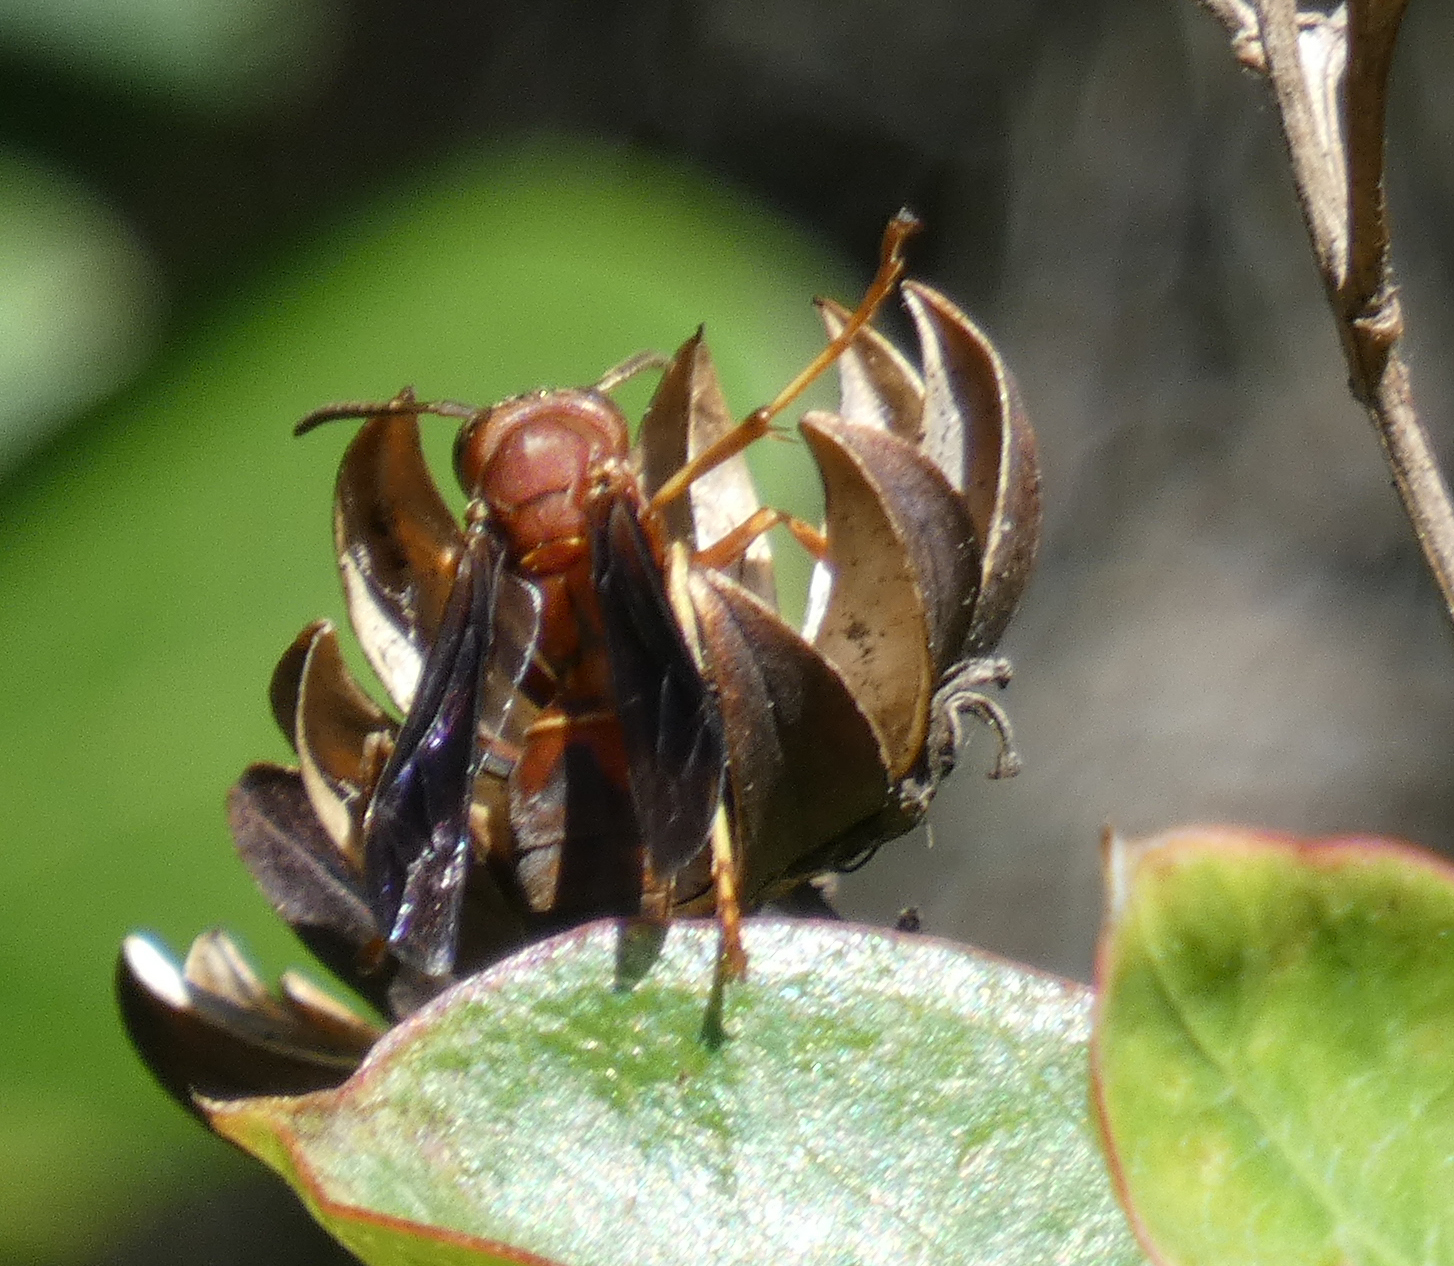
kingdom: Animalia
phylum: Arthropoda
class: Insecta
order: Hymenoptera
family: Vespidae
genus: Fuscopolistes
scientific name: Fuscopolistes
